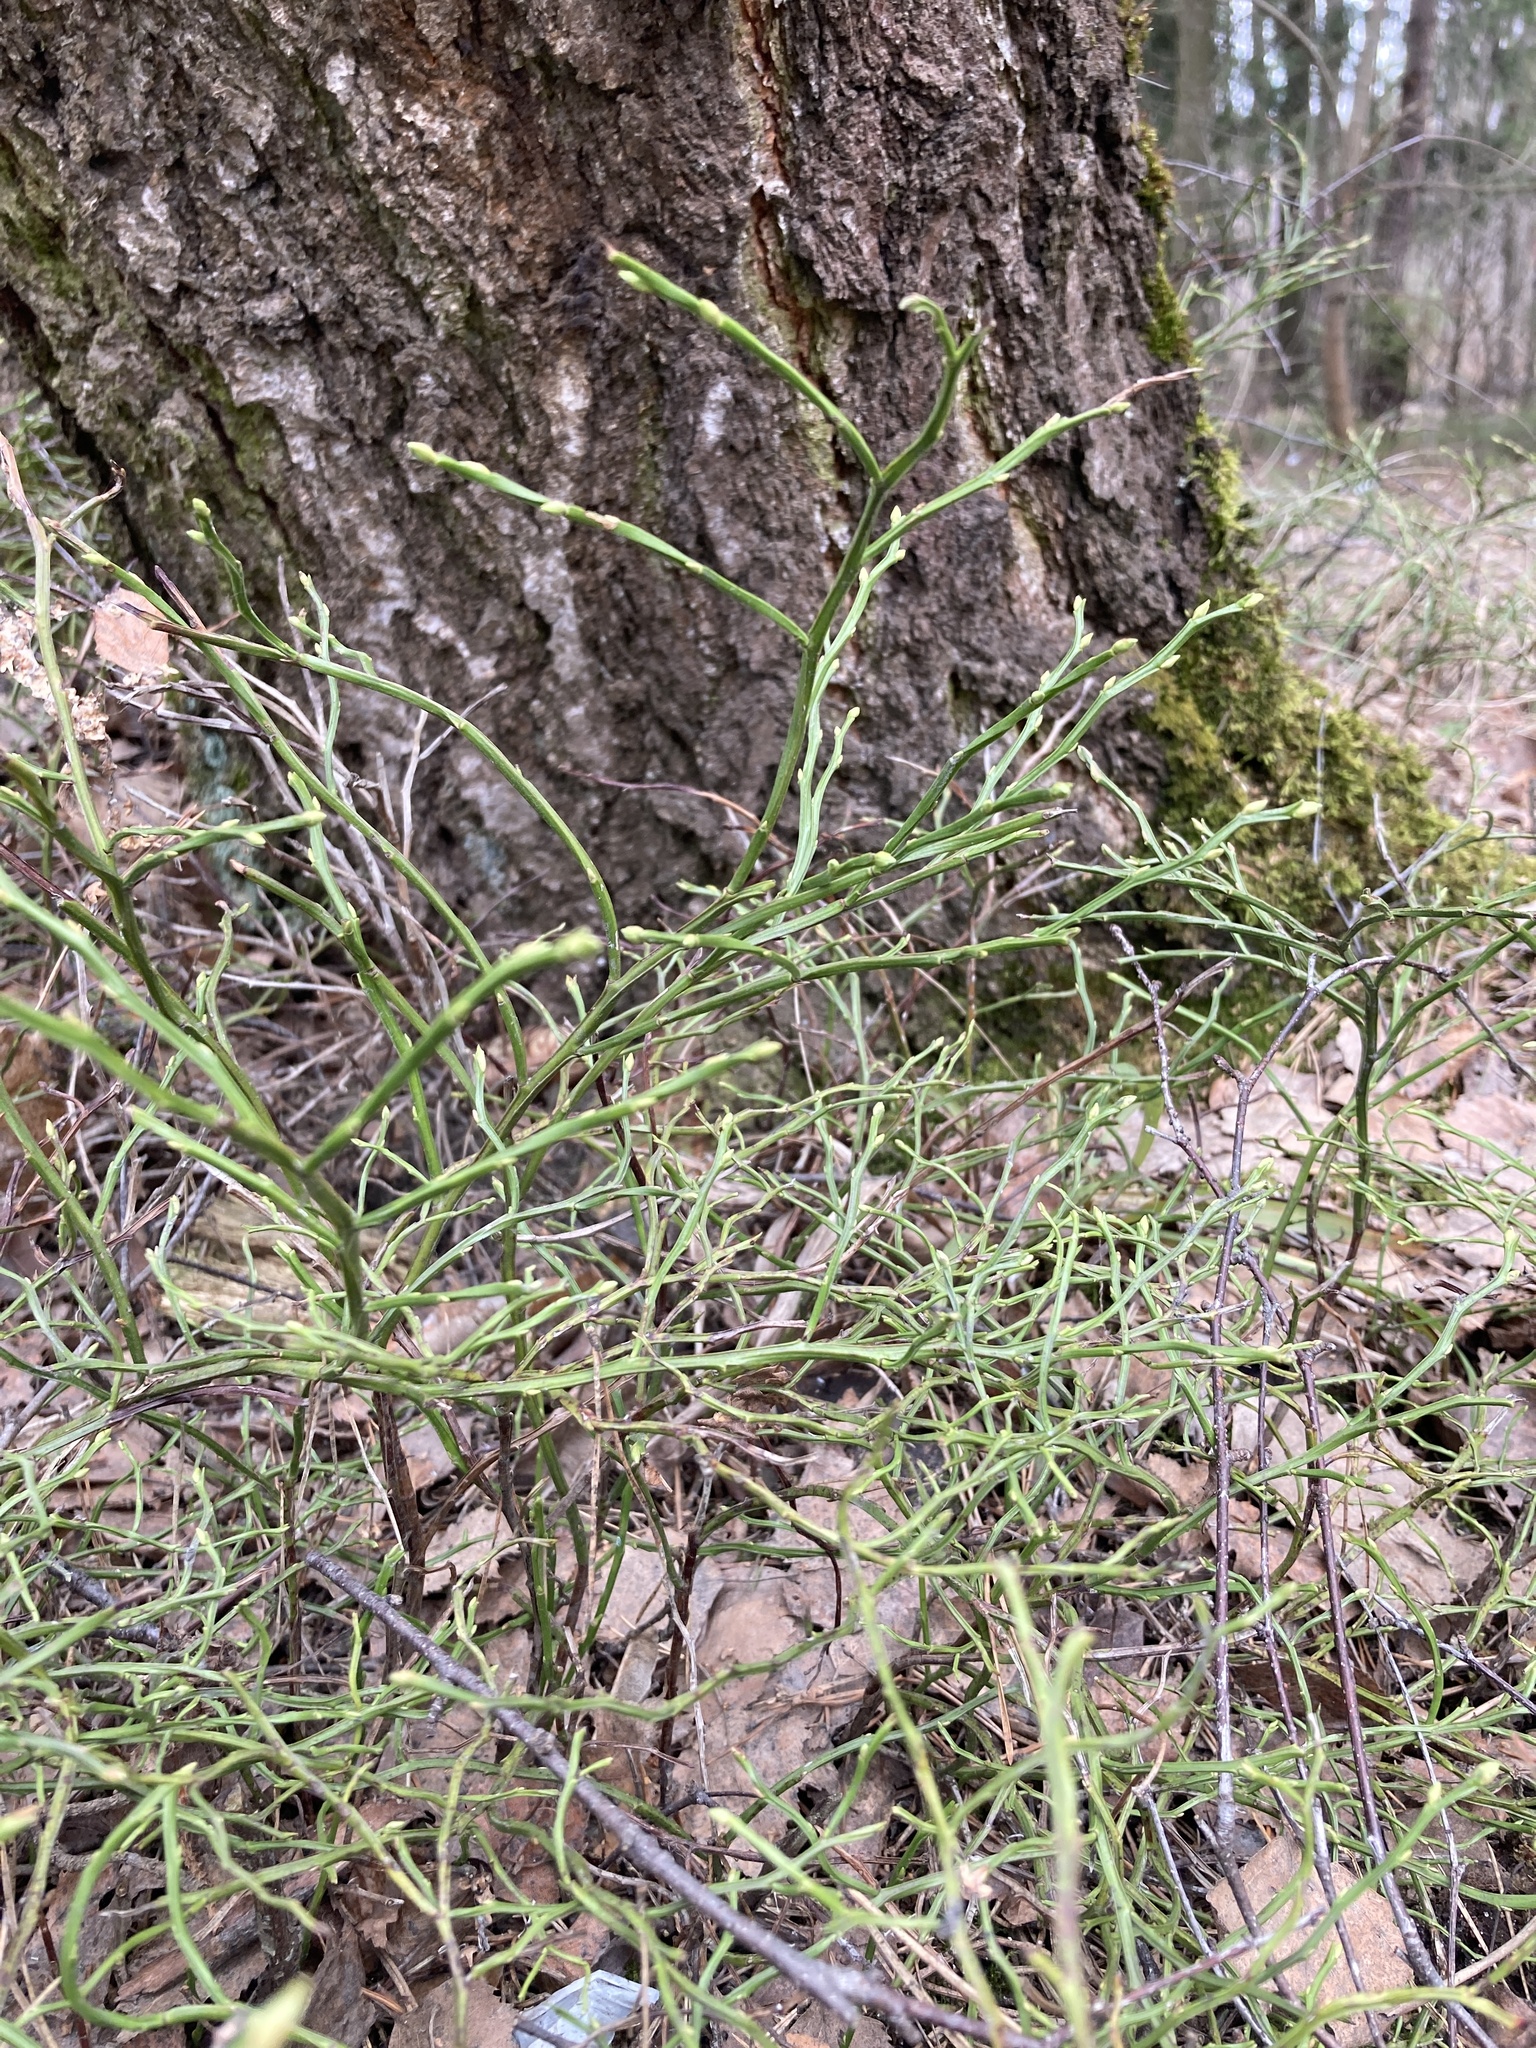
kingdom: Plantae
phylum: Tracheophyta
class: Magnoliopsida
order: Ericales
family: Ericaceae
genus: Vaccinium
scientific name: Vaccinium myrtillus
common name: Bilberry
